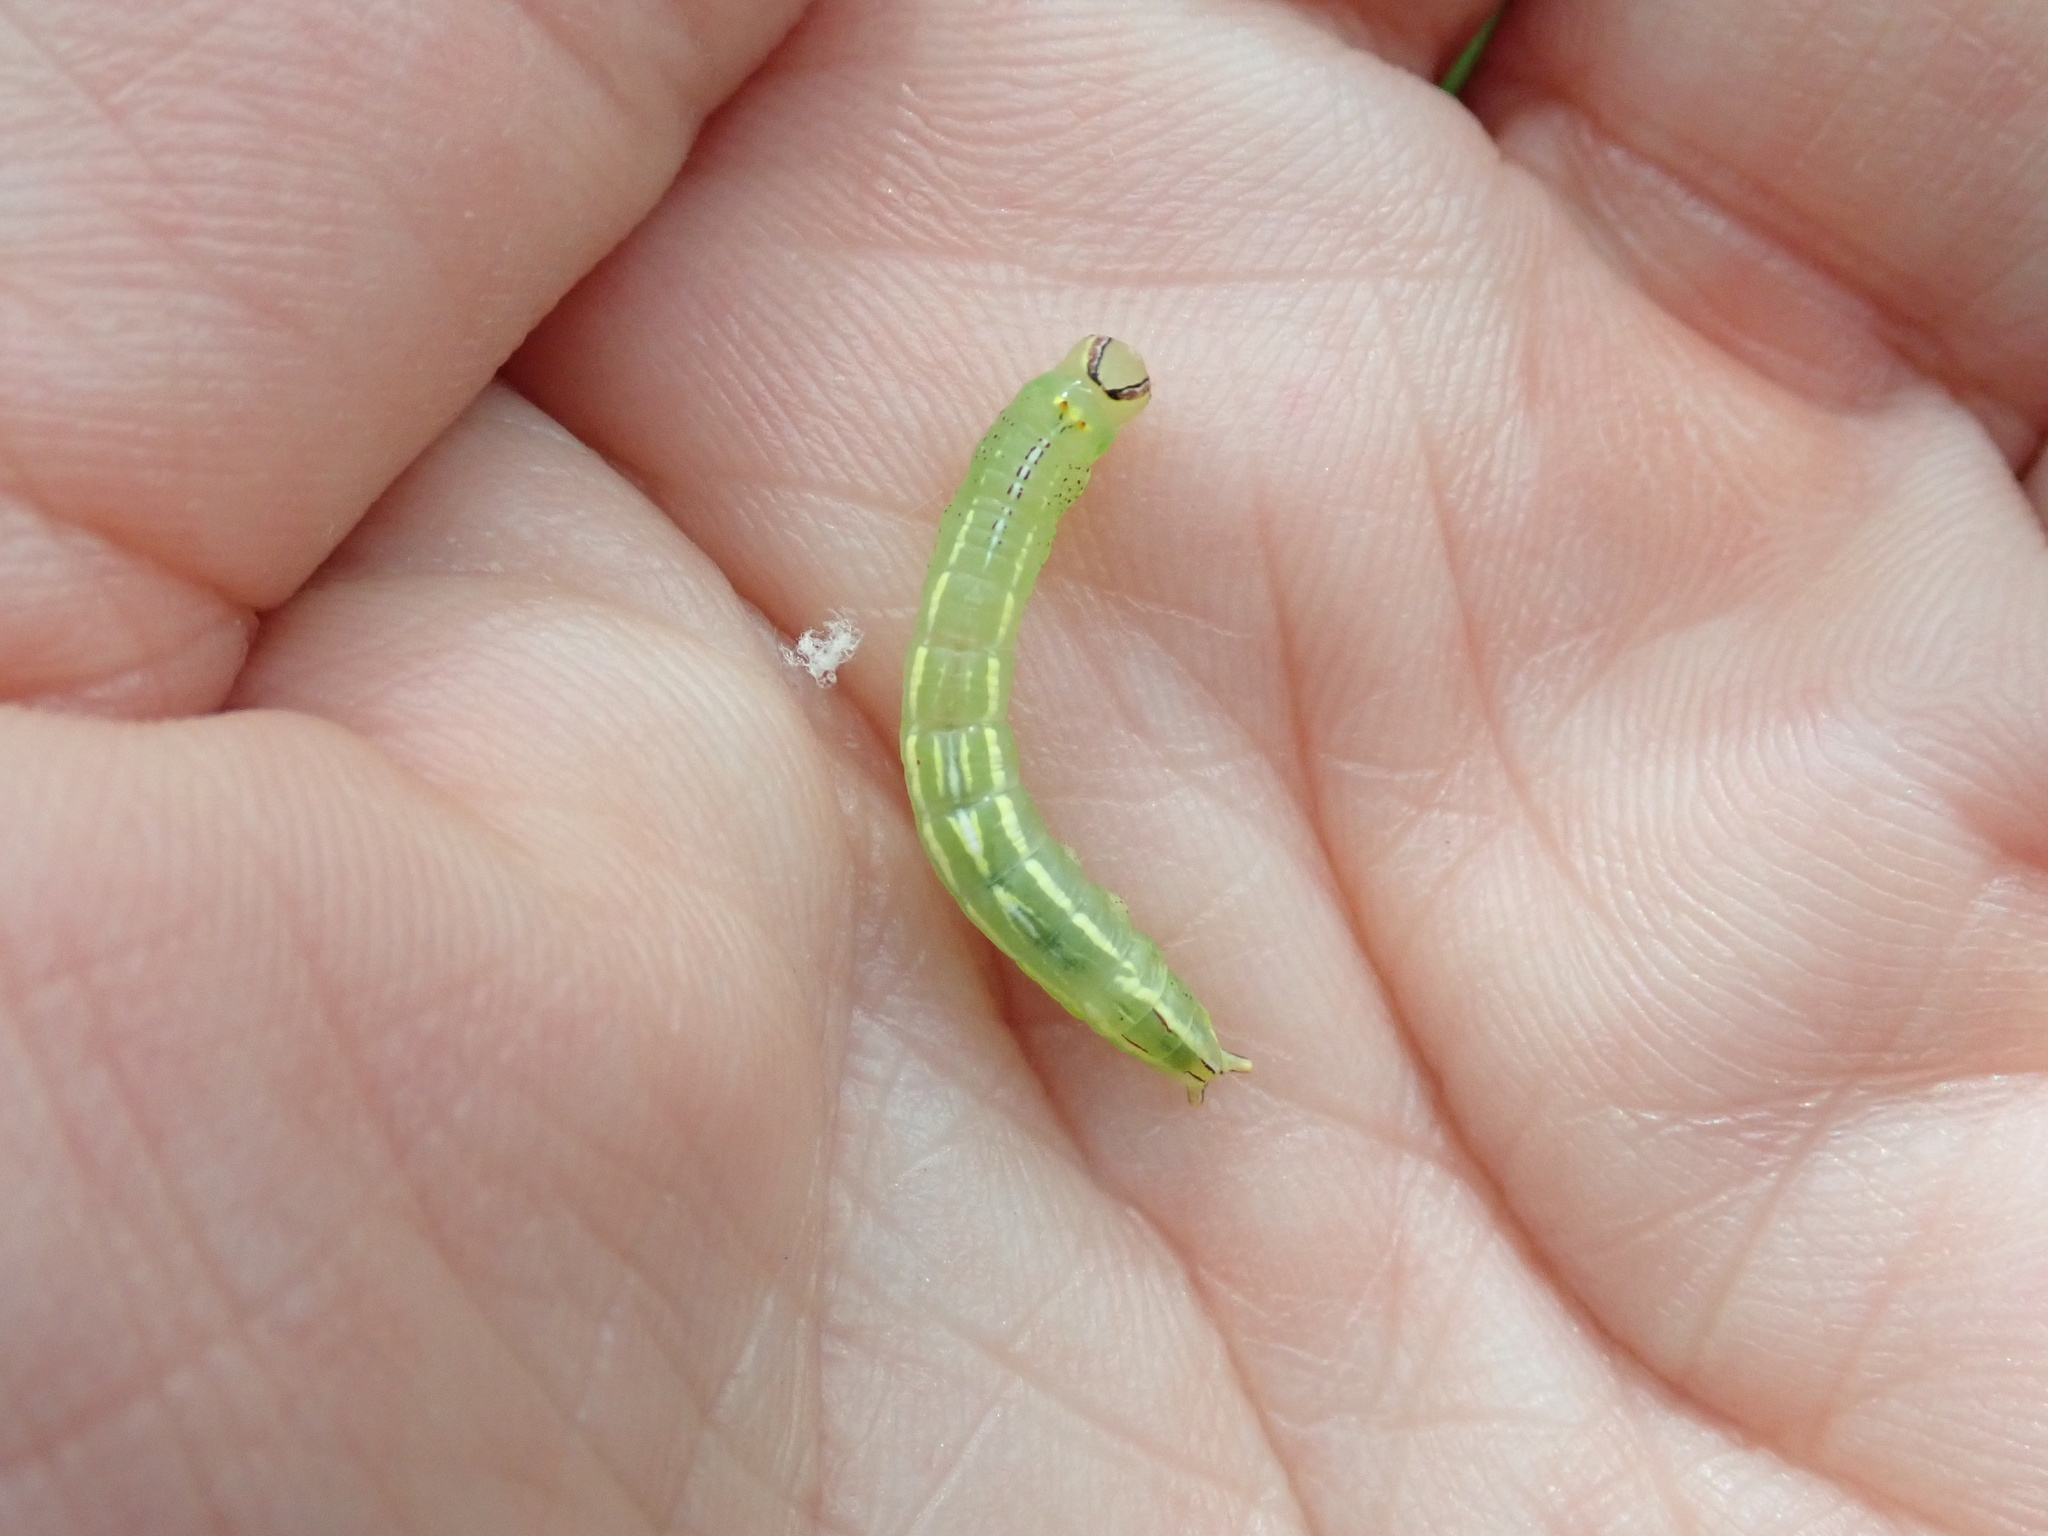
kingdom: Animalia
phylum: Arthropoda
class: Insecta
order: Lepidoptera
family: Notodontidae
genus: Disphragis
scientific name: Disphragis Cecrita guttivitta
